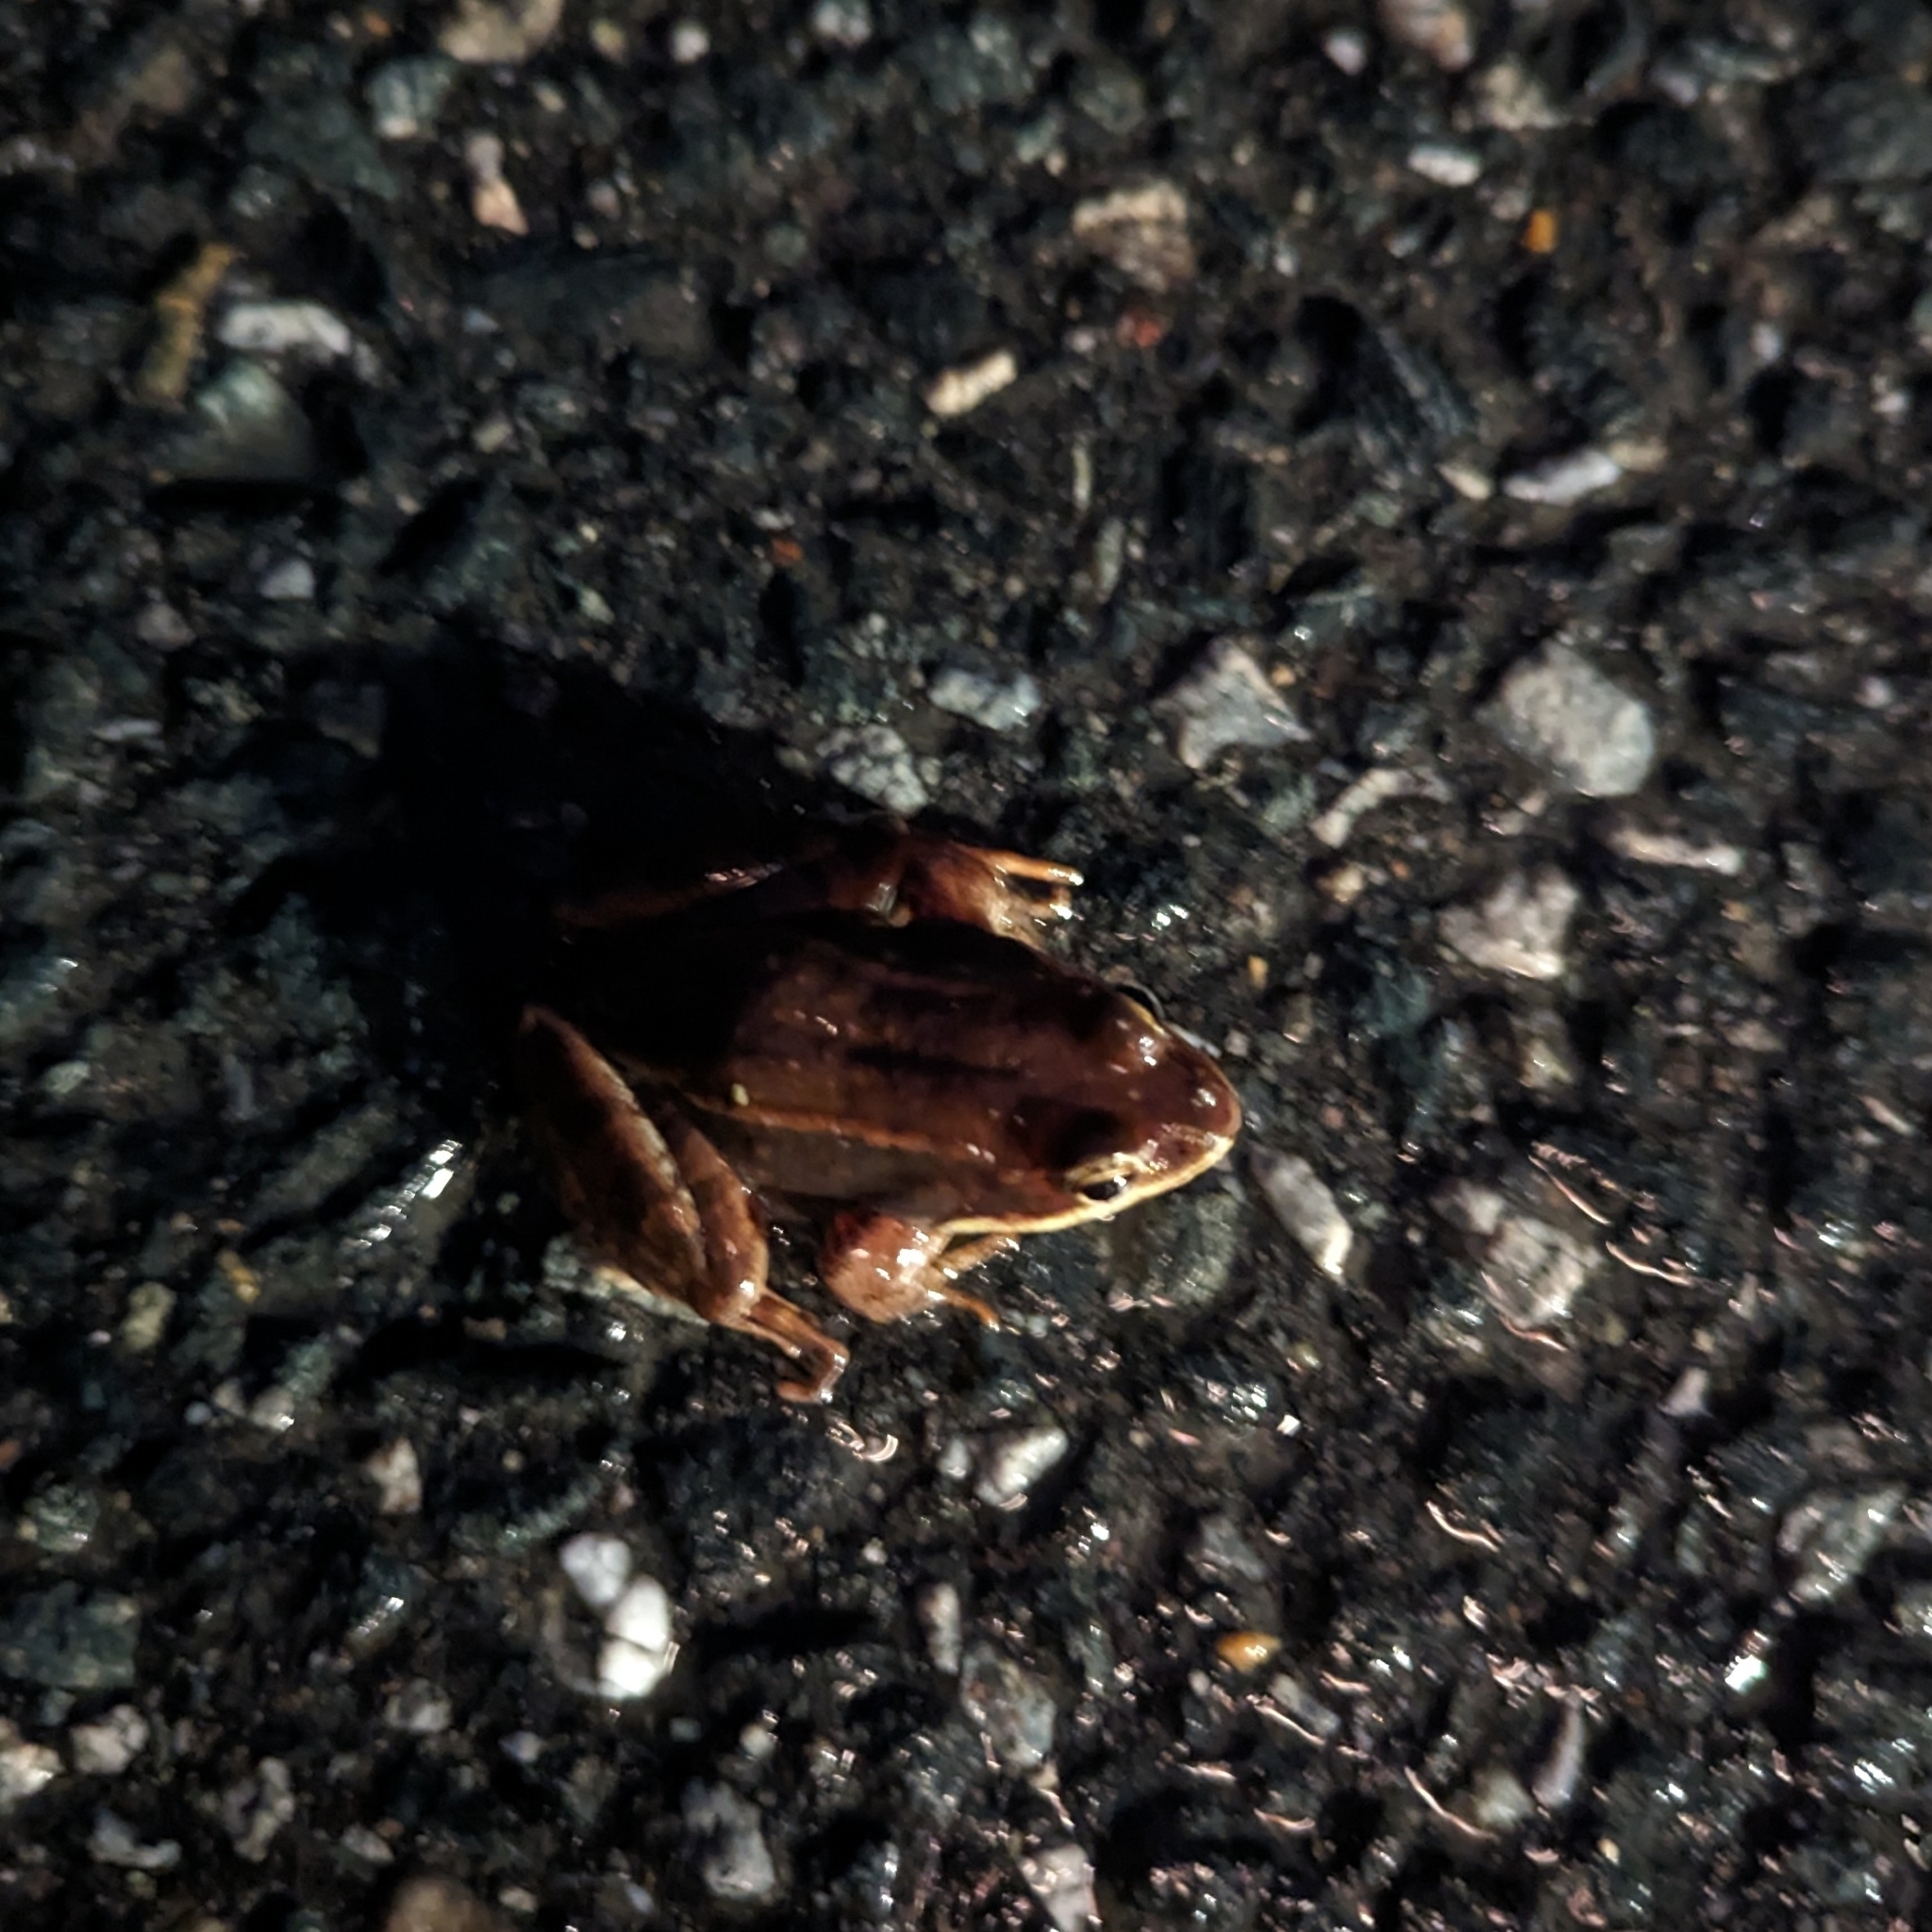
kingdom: Animalia
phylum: Chordata
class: Amphibia
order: Anura
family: Ranidae
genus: Lithobates
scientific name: Lithobates sylvaticus
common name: Wood frog
